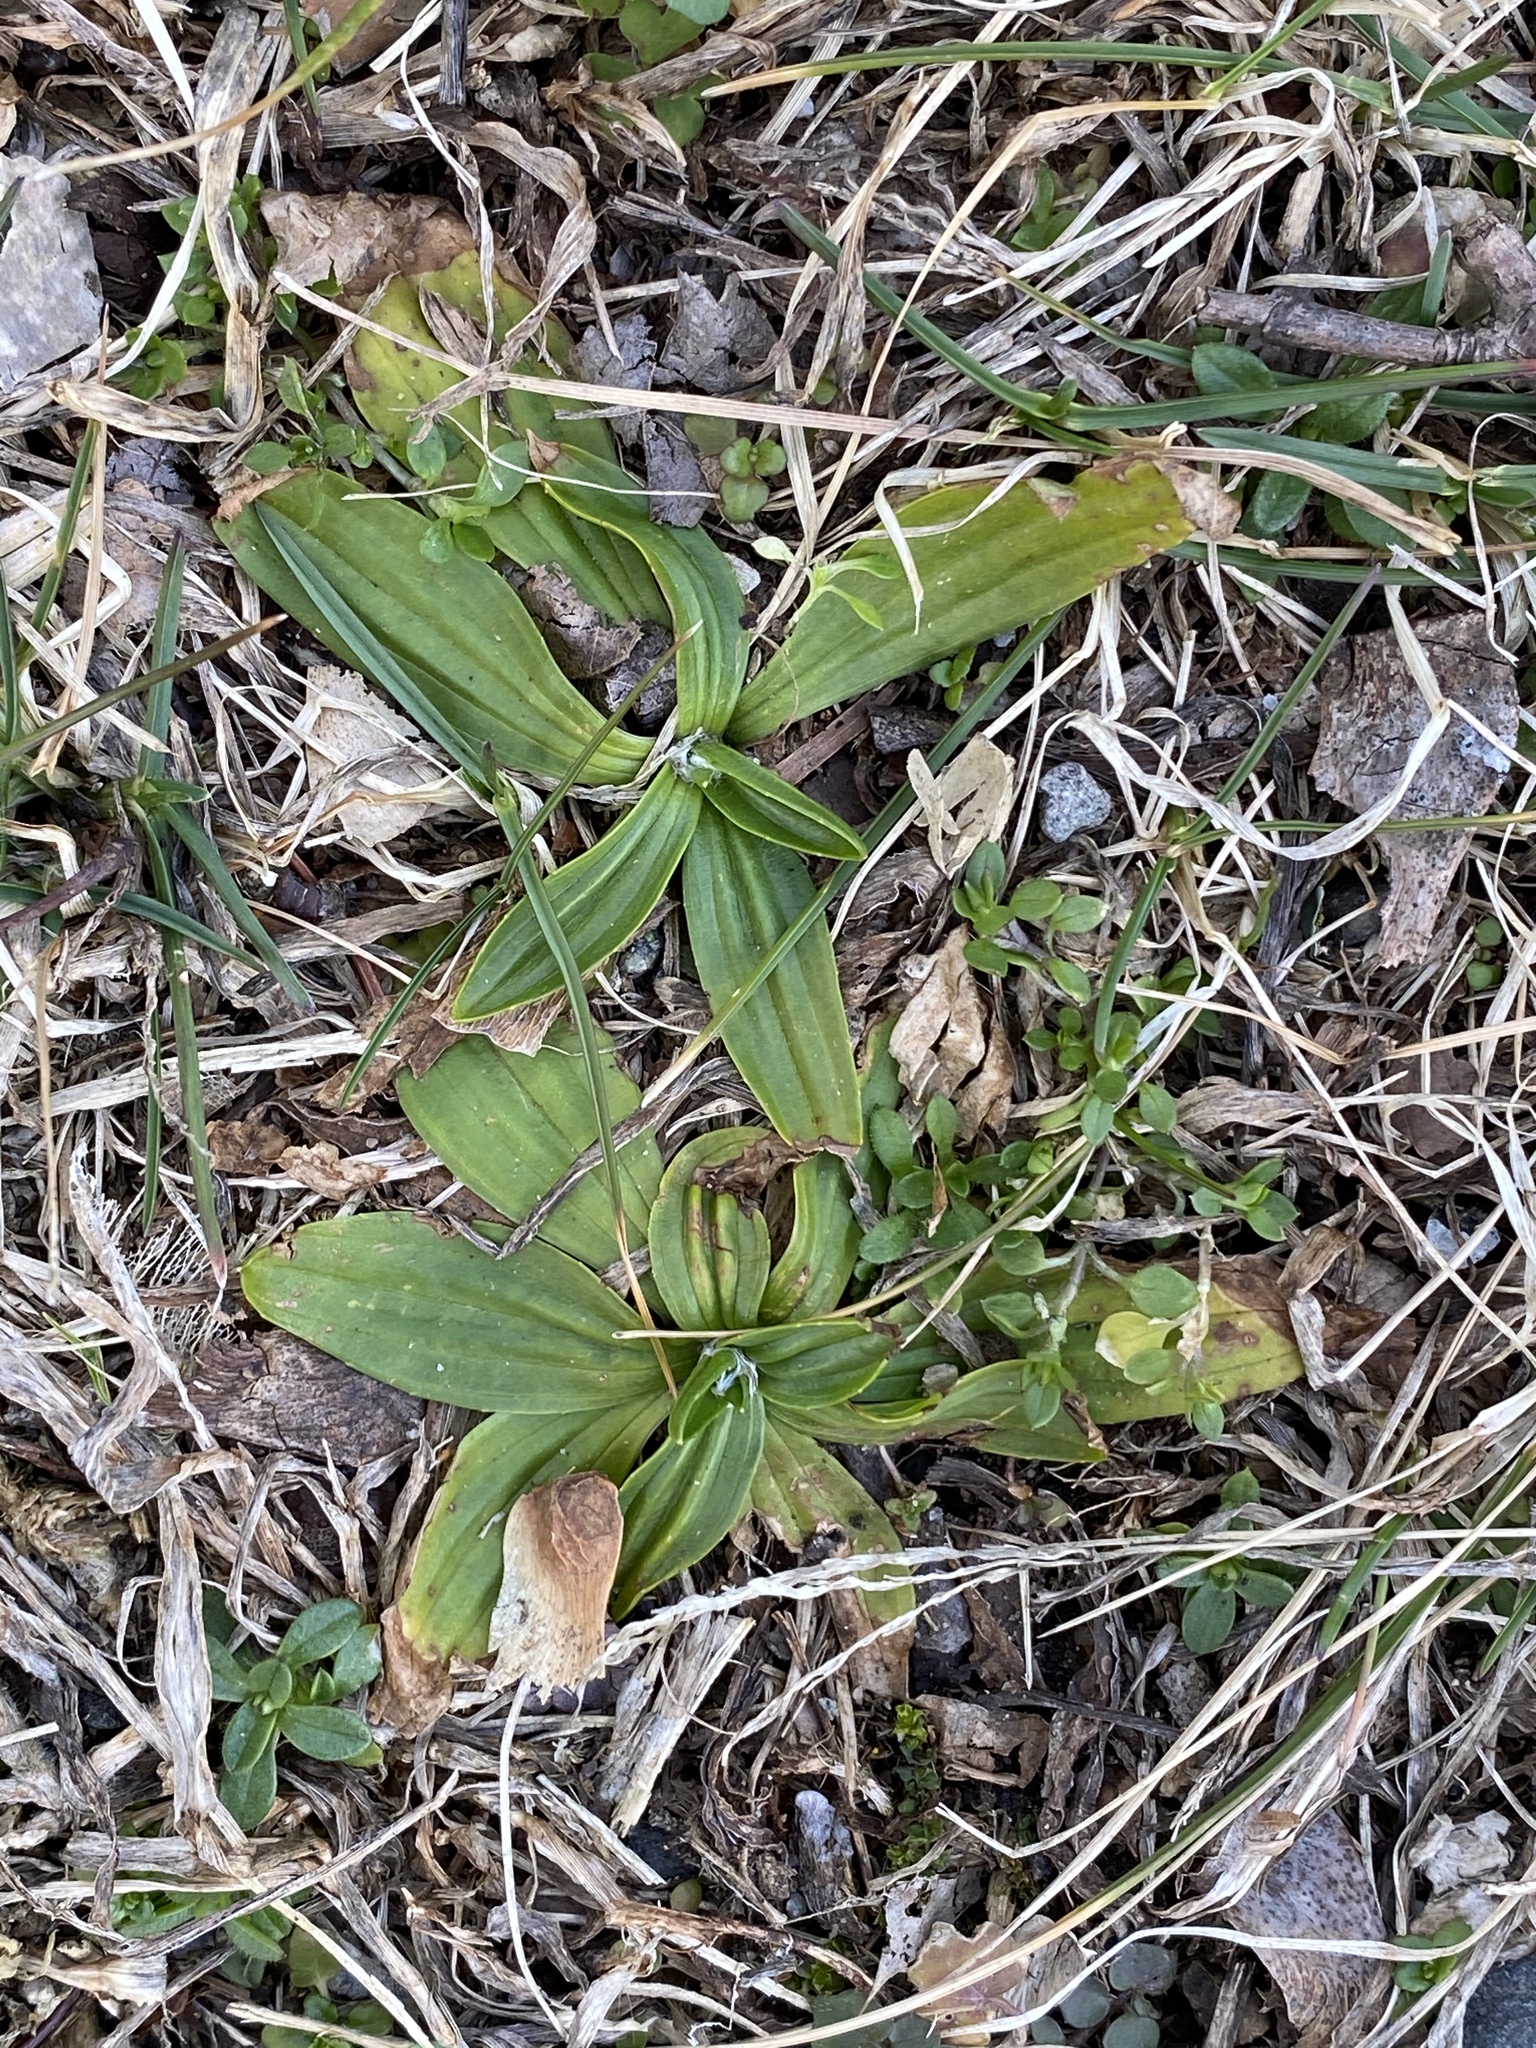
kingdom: Plantae
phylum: Tracheophyta
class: Magnoliopsida
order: Lamiales
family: Plantaginaceae
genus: Plantago
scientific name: Plantago lanceolata
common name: Ribwort plantain
